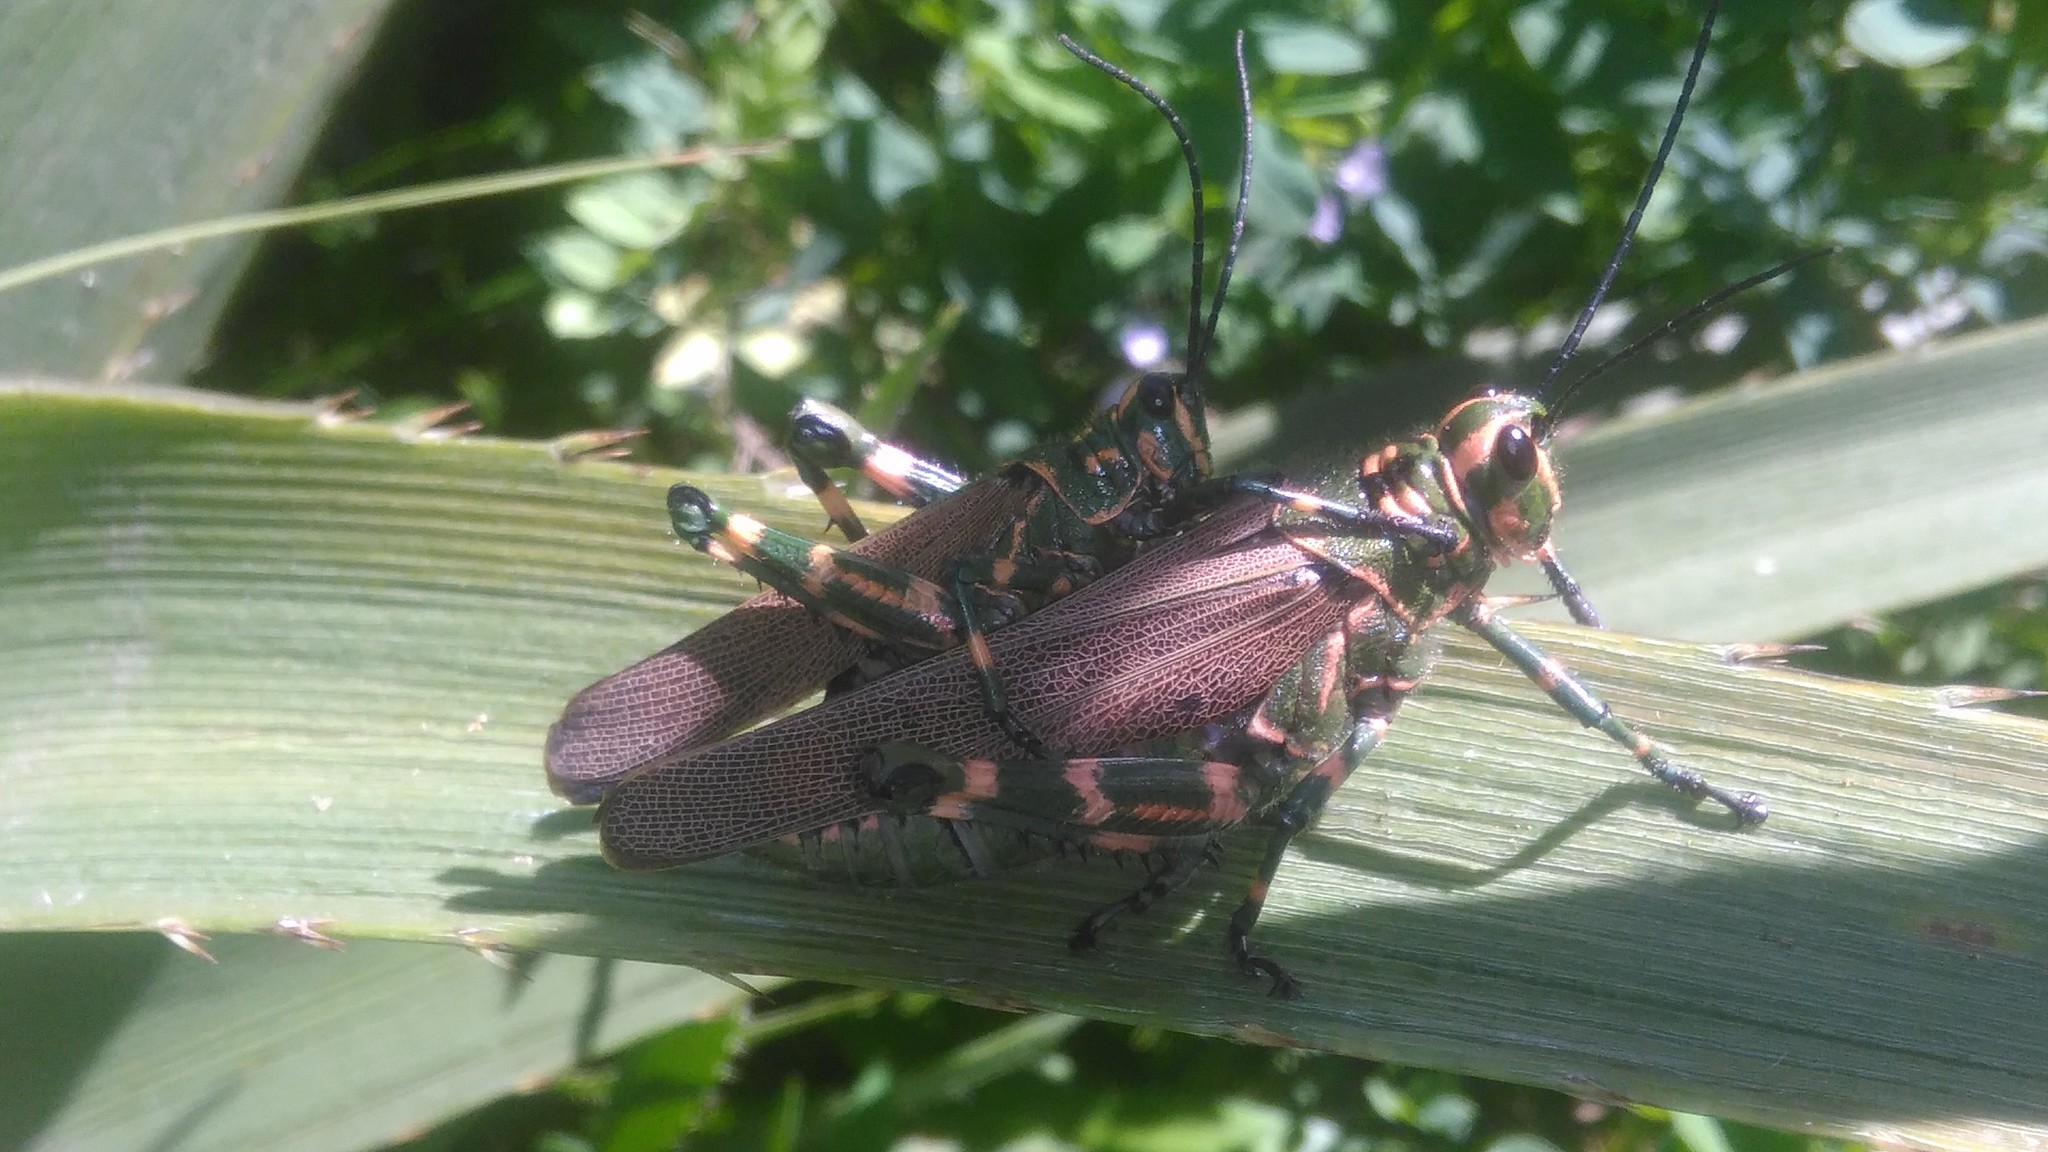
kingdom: Animalia
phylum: Arthropoda
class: Insecta
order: Orthoptera
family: Romaleidae
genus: Chromacris
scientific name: Chromacris speciosa
